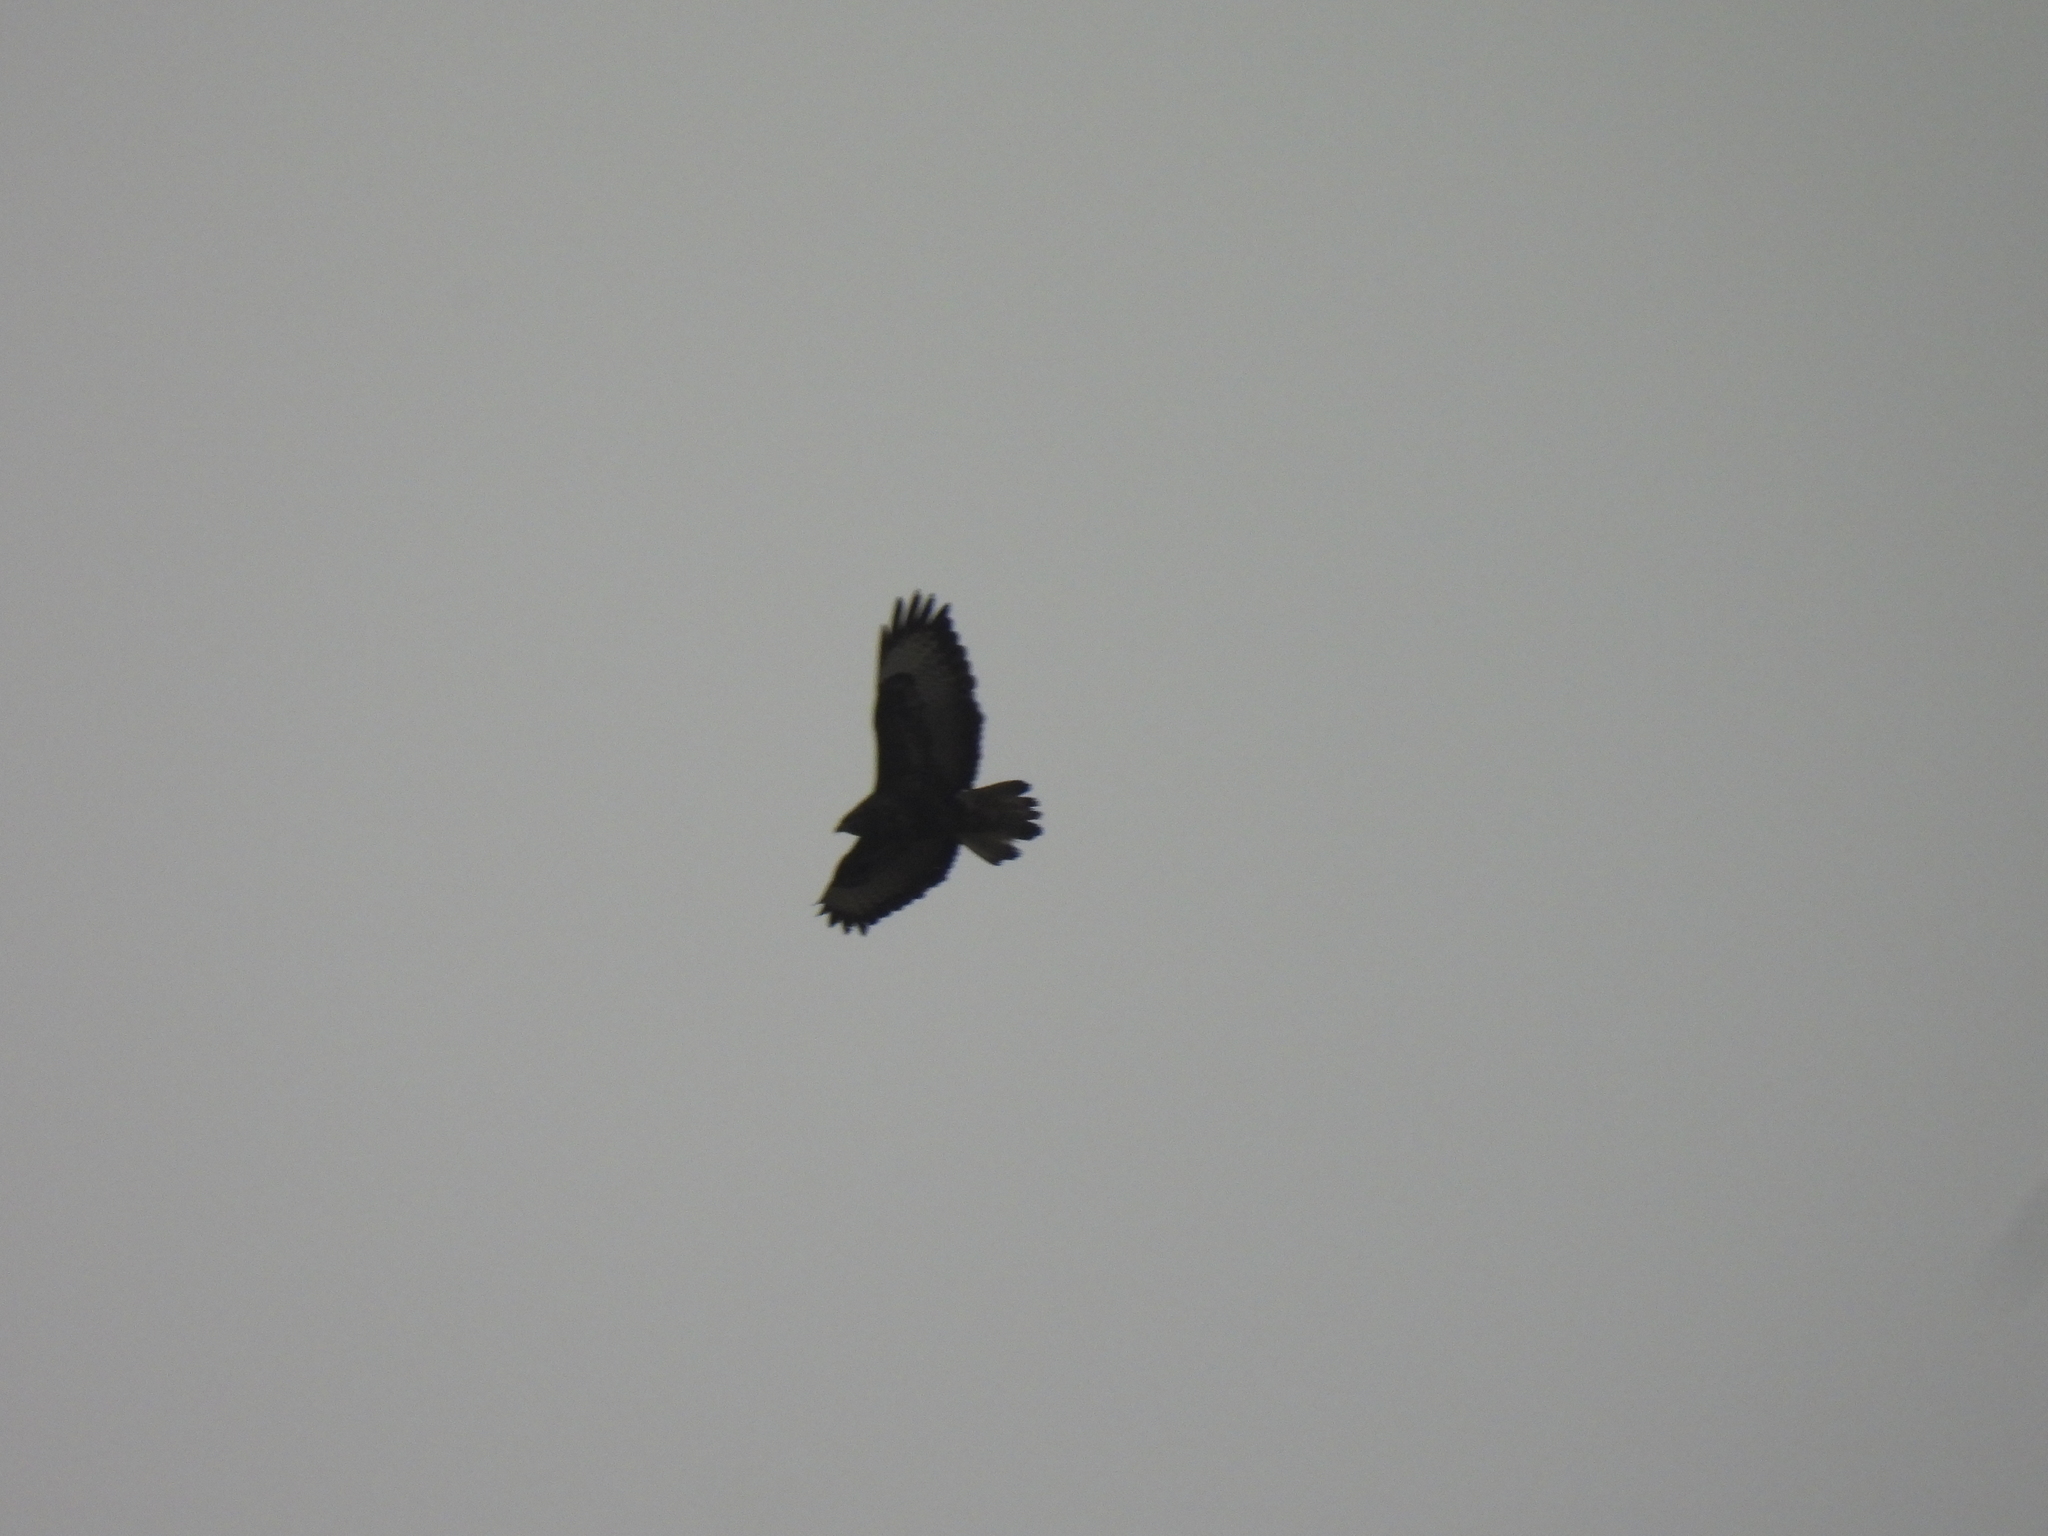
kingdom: Animalia
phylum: Chordata
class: Aves
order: Accipitriformes
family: Accipitridae
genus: Buteo
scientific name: Buteo buteo
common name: Common buzzard
